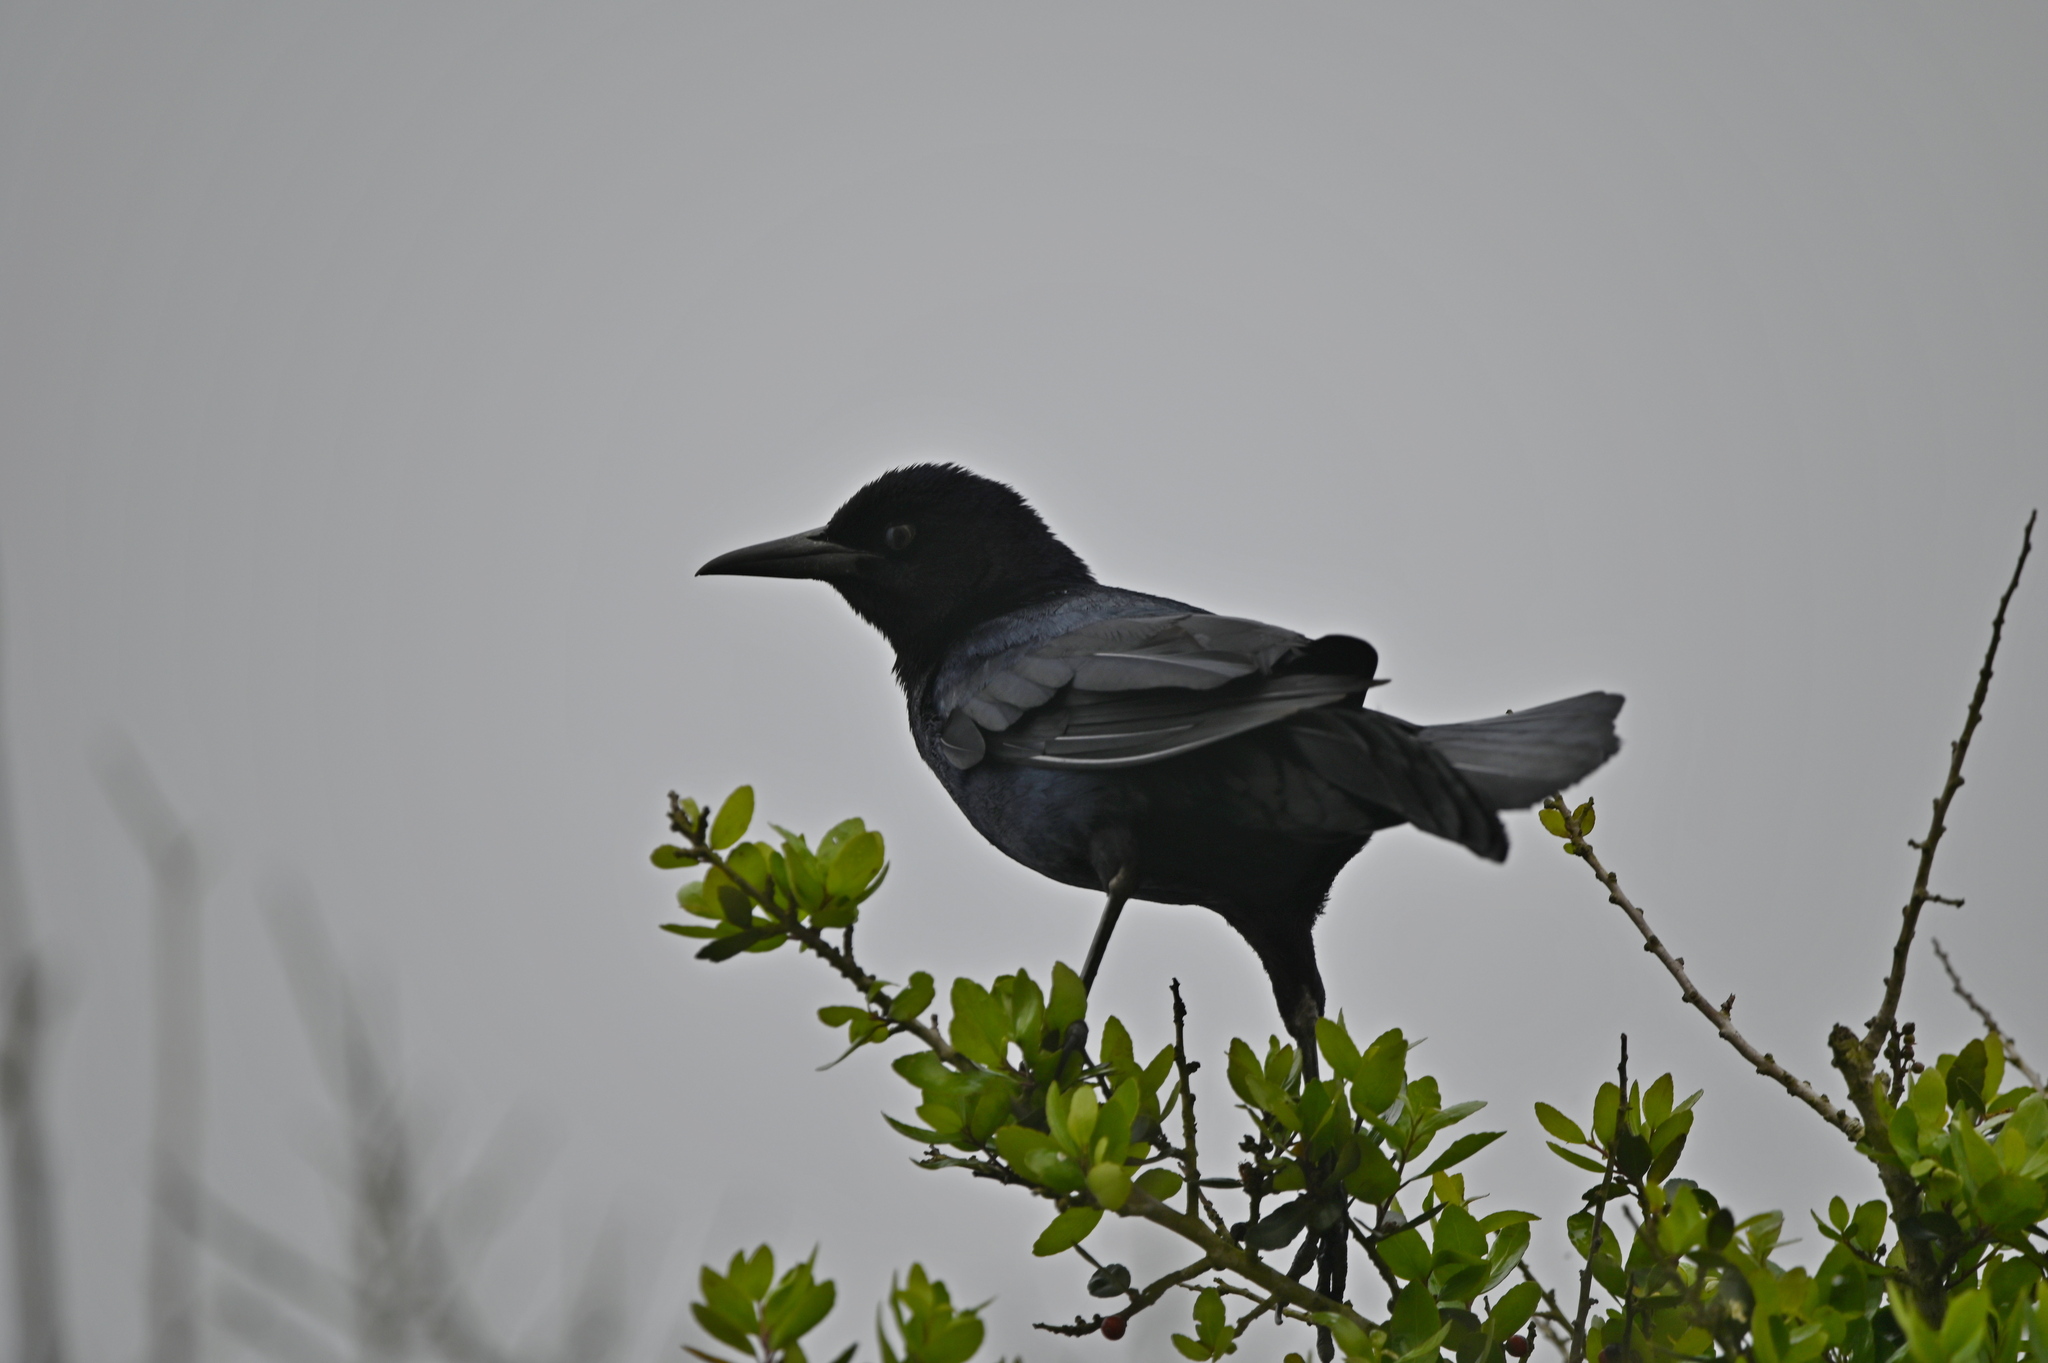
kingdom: Animalia
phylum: Chordata
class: Aves
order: Passeriformes
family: Icteridae
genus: Quiscalus
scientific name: Quiscalus major
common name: Boat-tailed grackle
